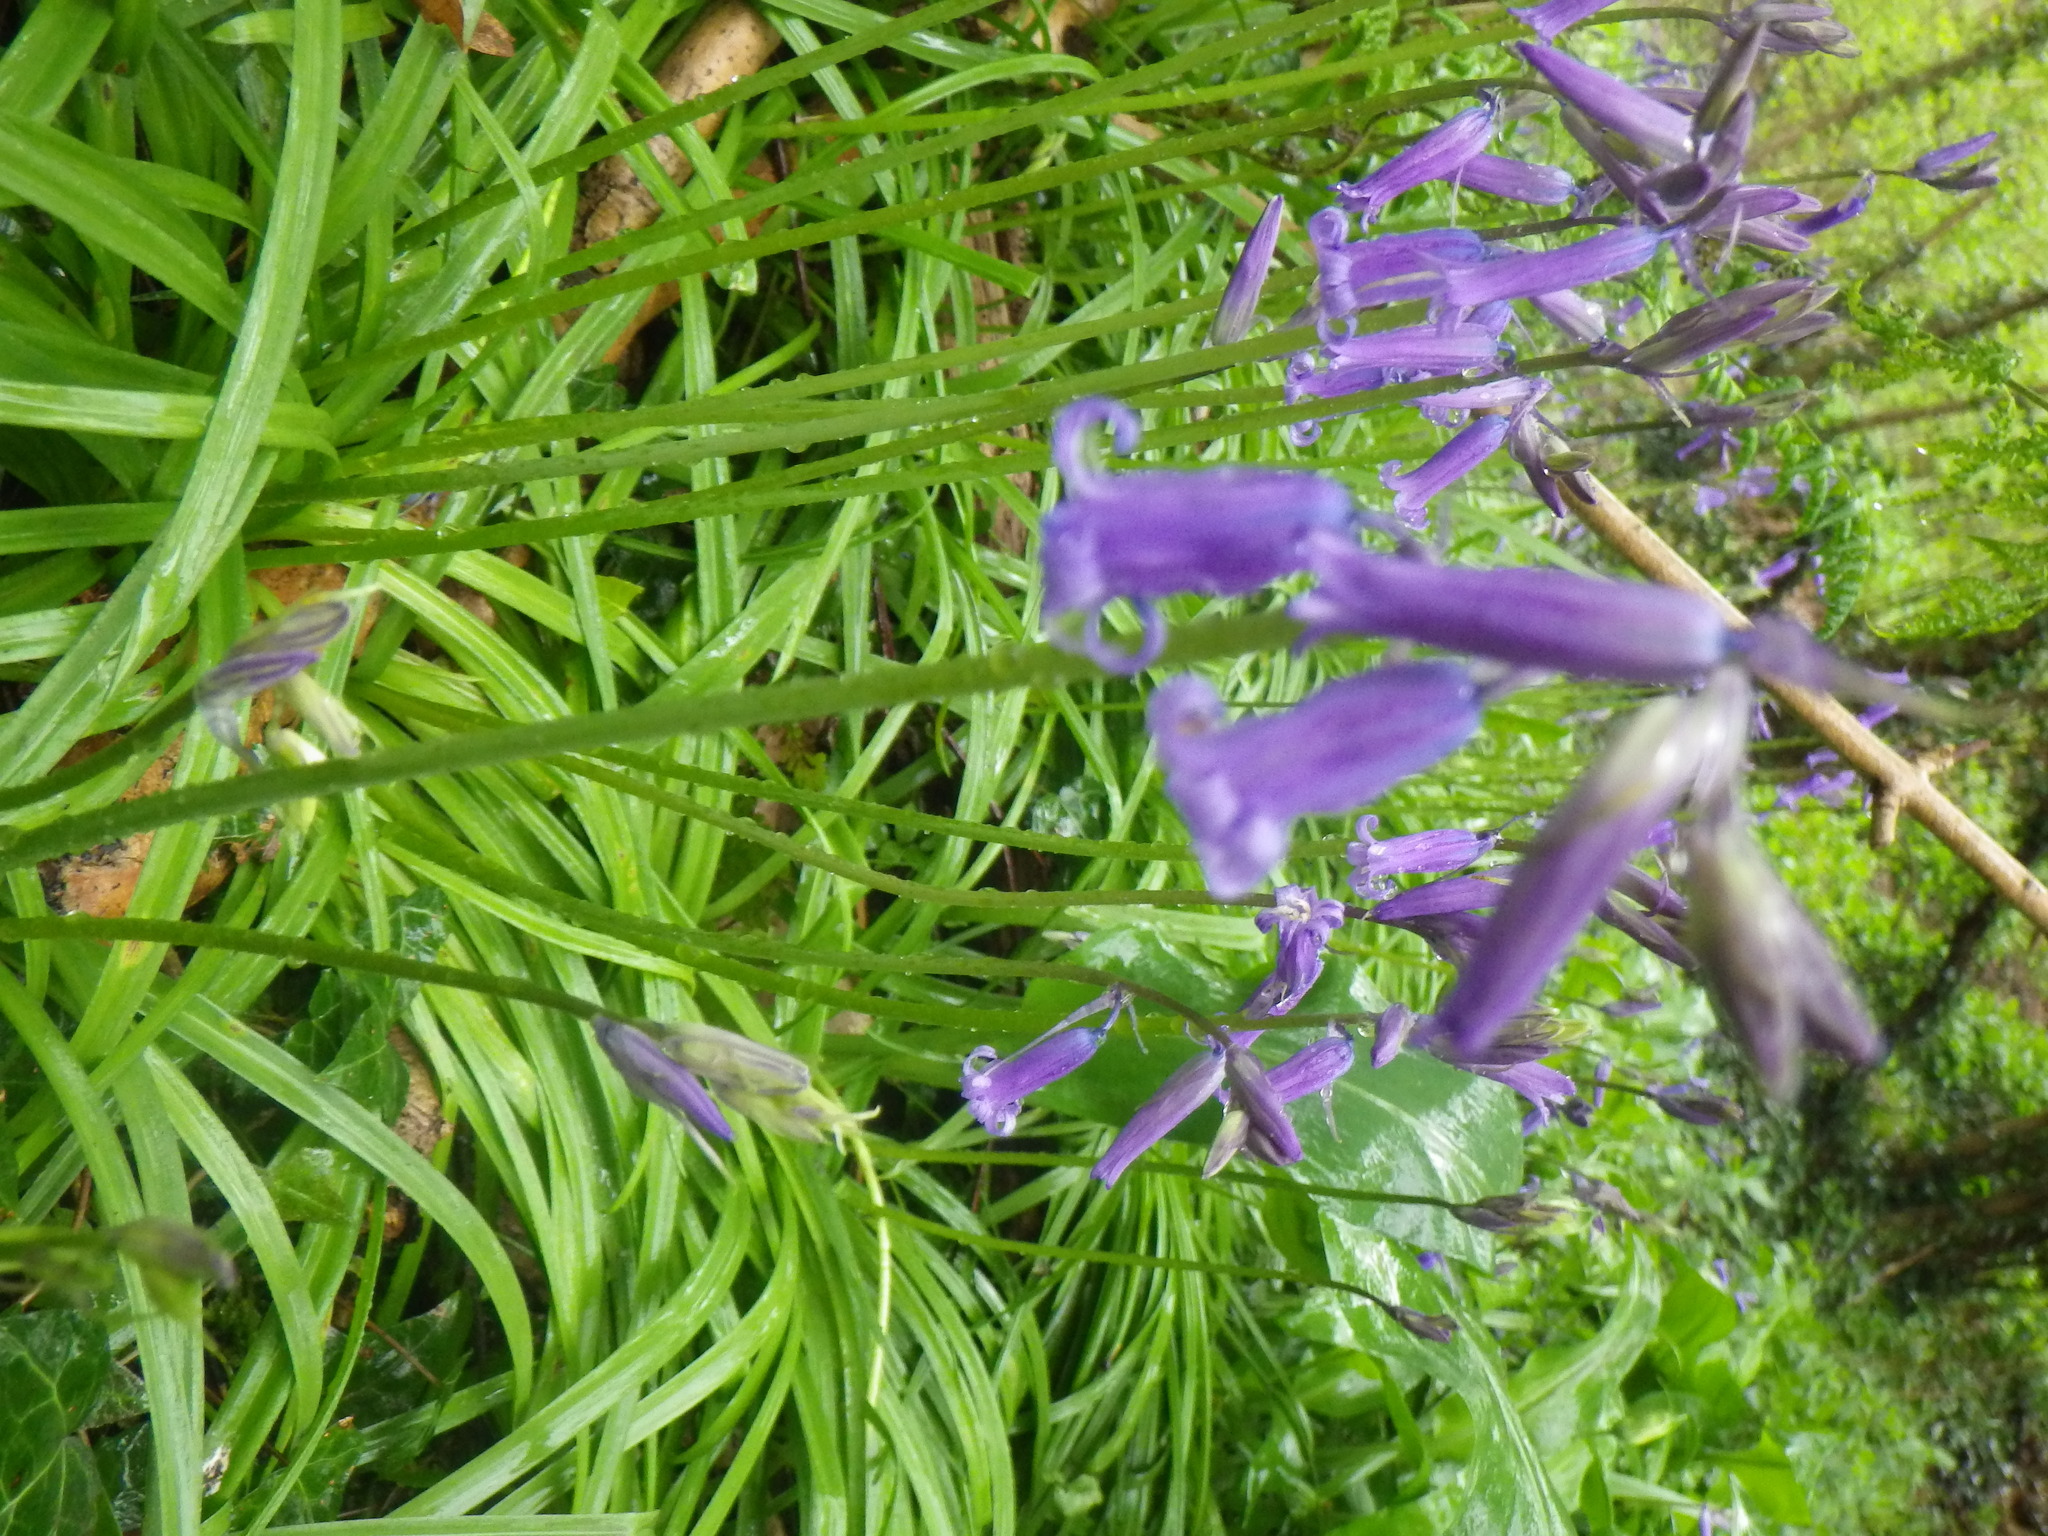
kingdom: Plantae
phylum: Tracheophyta
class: Liliopsida
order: Asparagales
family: Asparagaceae
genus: Hyacinthoides
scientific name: Hyacinthoides non-scripta
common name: Bluebell
